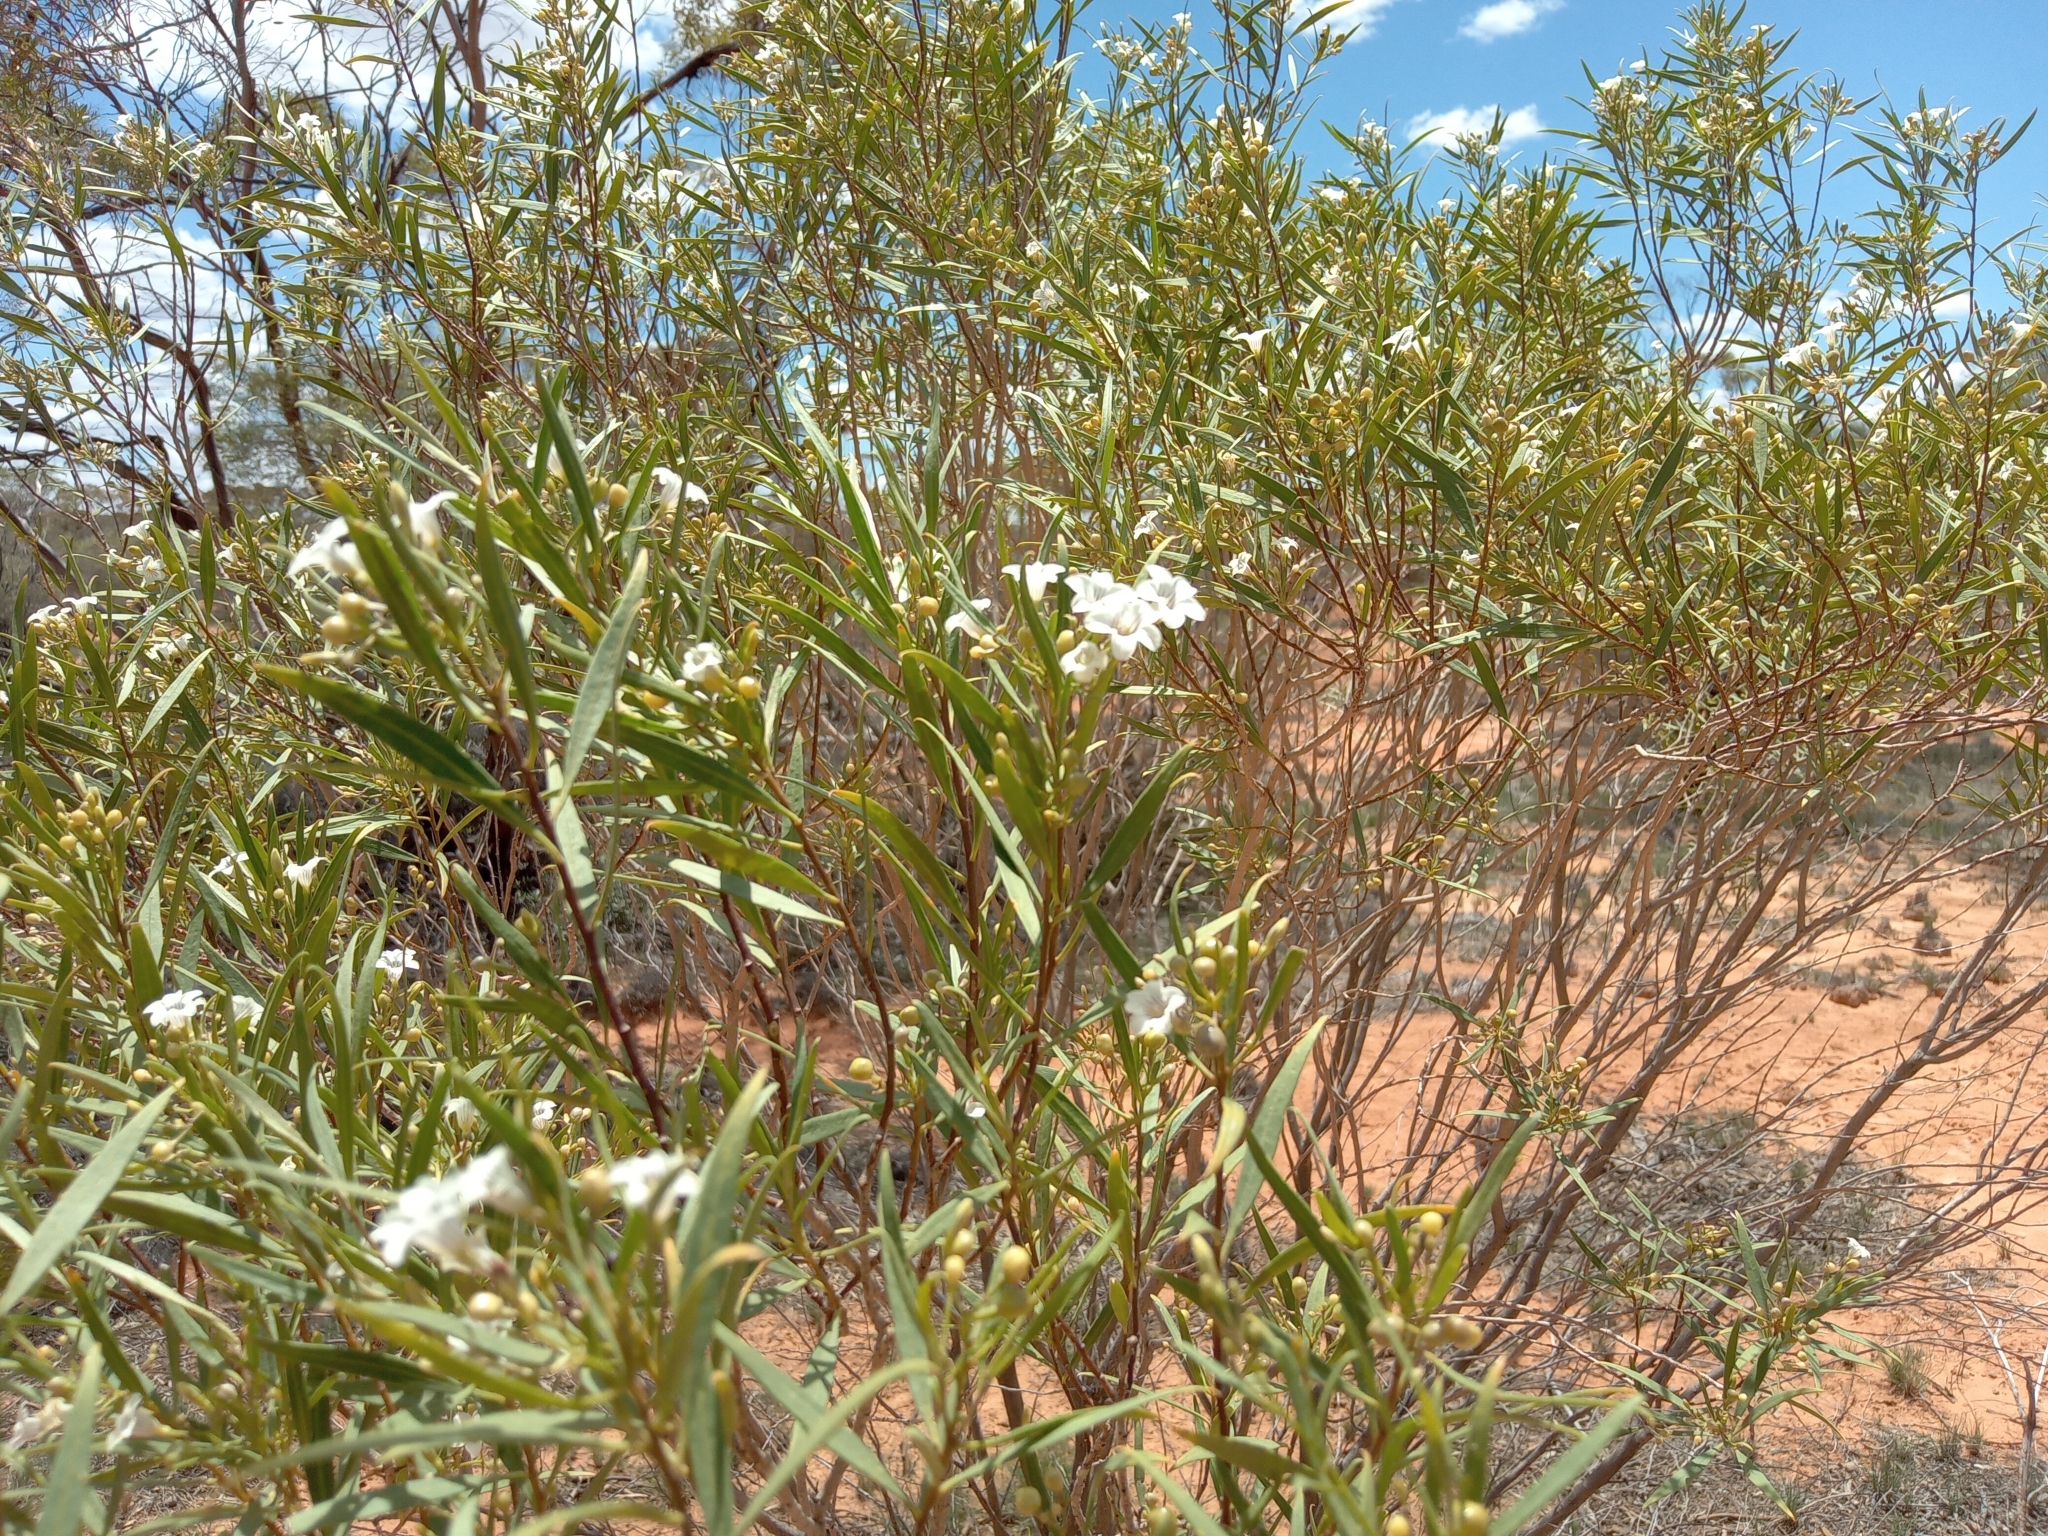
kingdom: Plantae
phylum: Tracheophyta
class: Magnoliopsida
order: Solanales
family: Solanaceae
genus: Duboisia
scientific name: Duboisia hopwoodii
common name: Pituri
